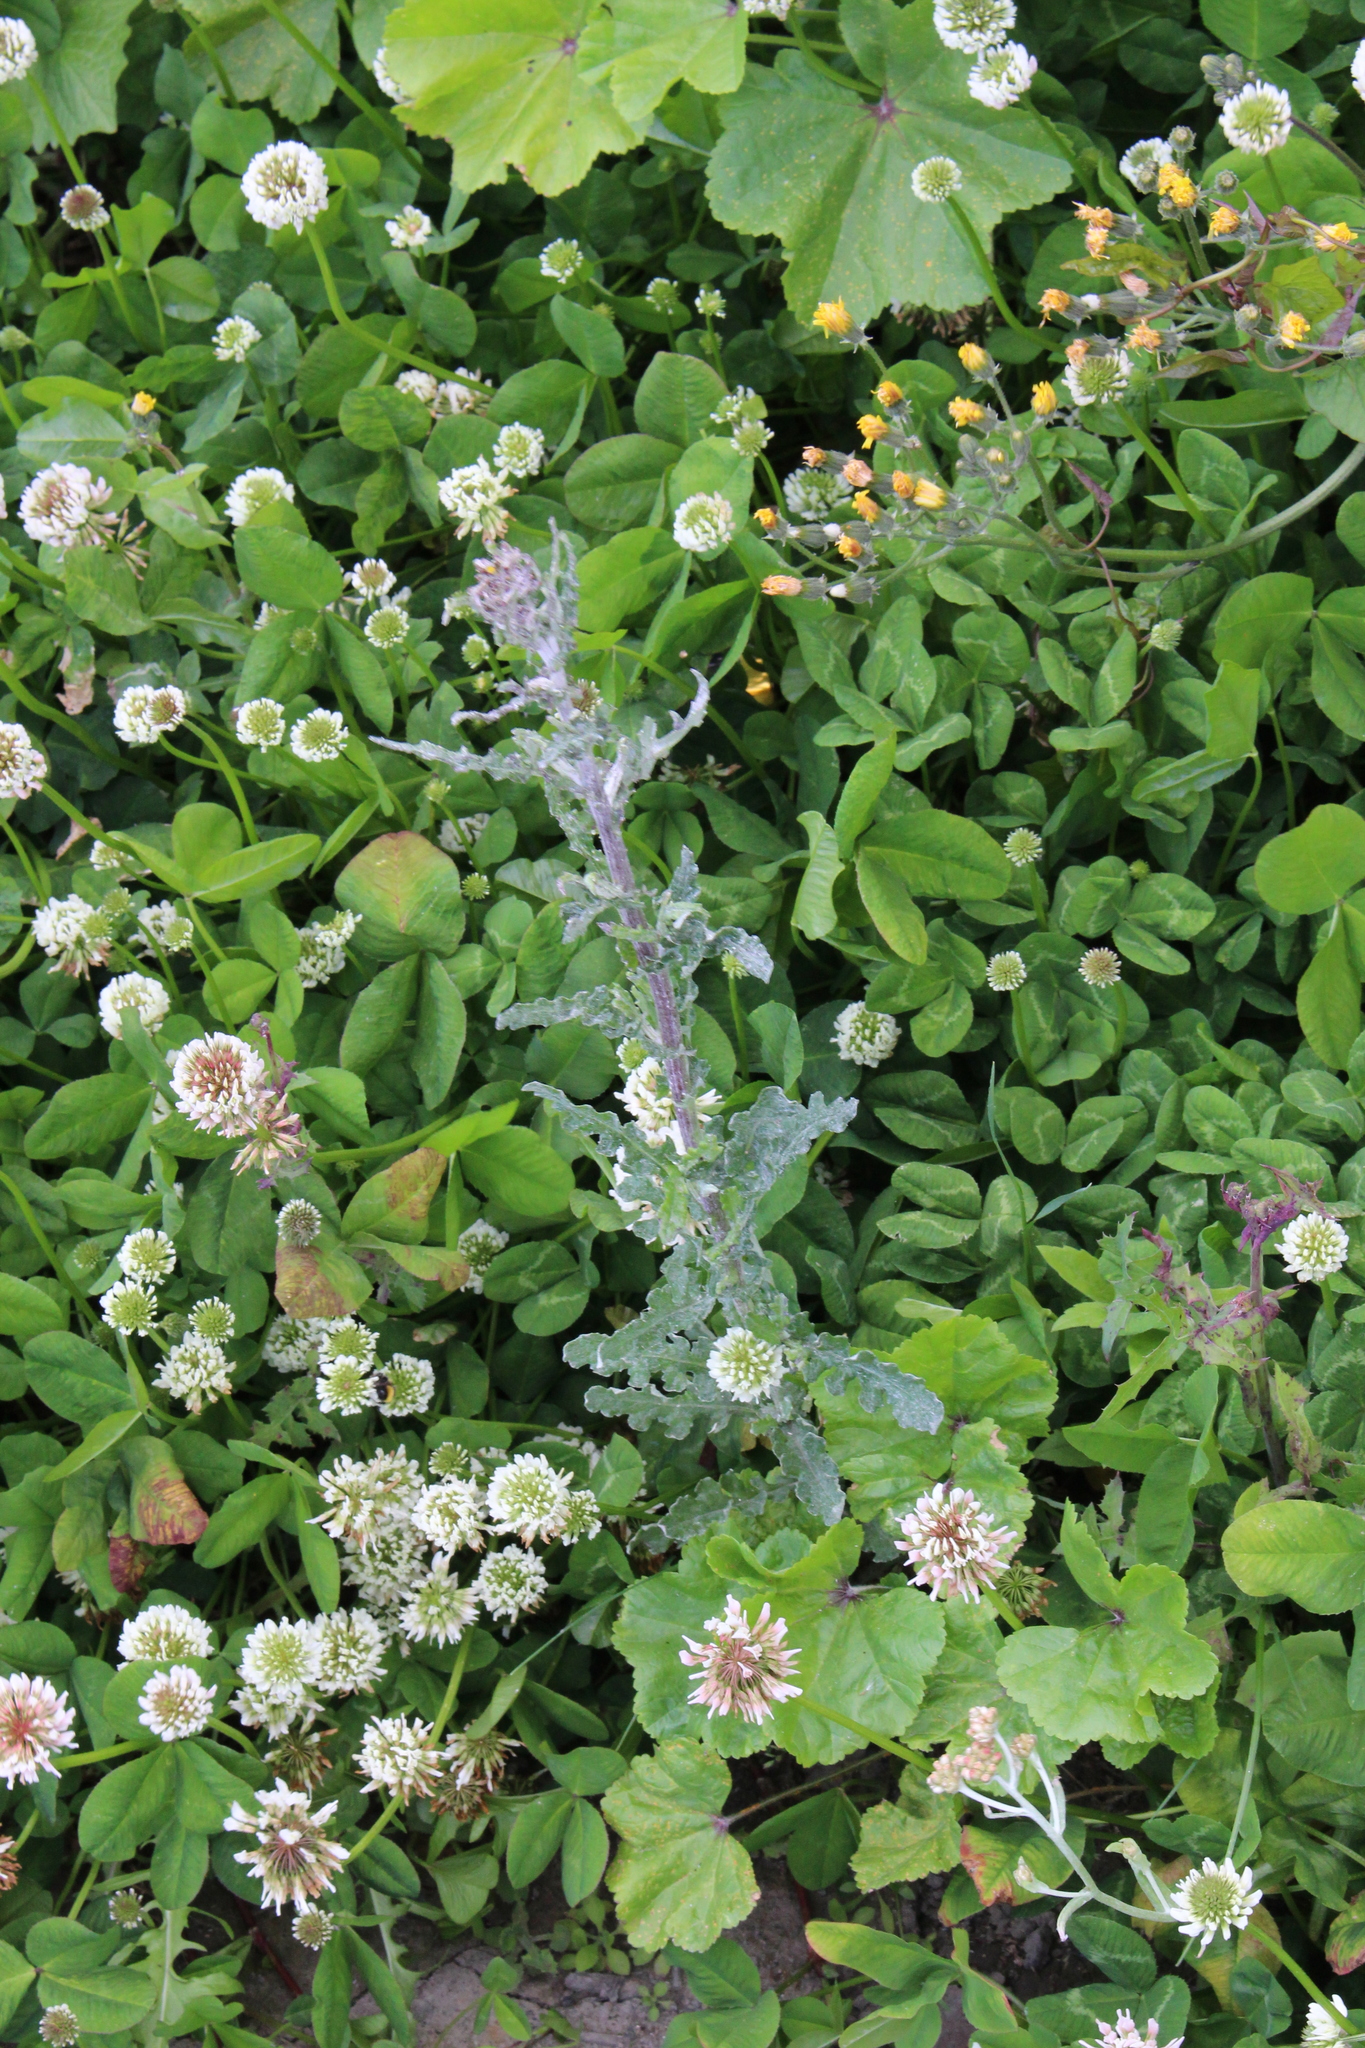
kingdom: Plantae
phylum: Tracheophyta
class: Magnoliopsida
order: Asterales
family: Asteraceae
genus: Senecio
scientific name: Senecio glomeratus
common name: Cutleaf burnweed
